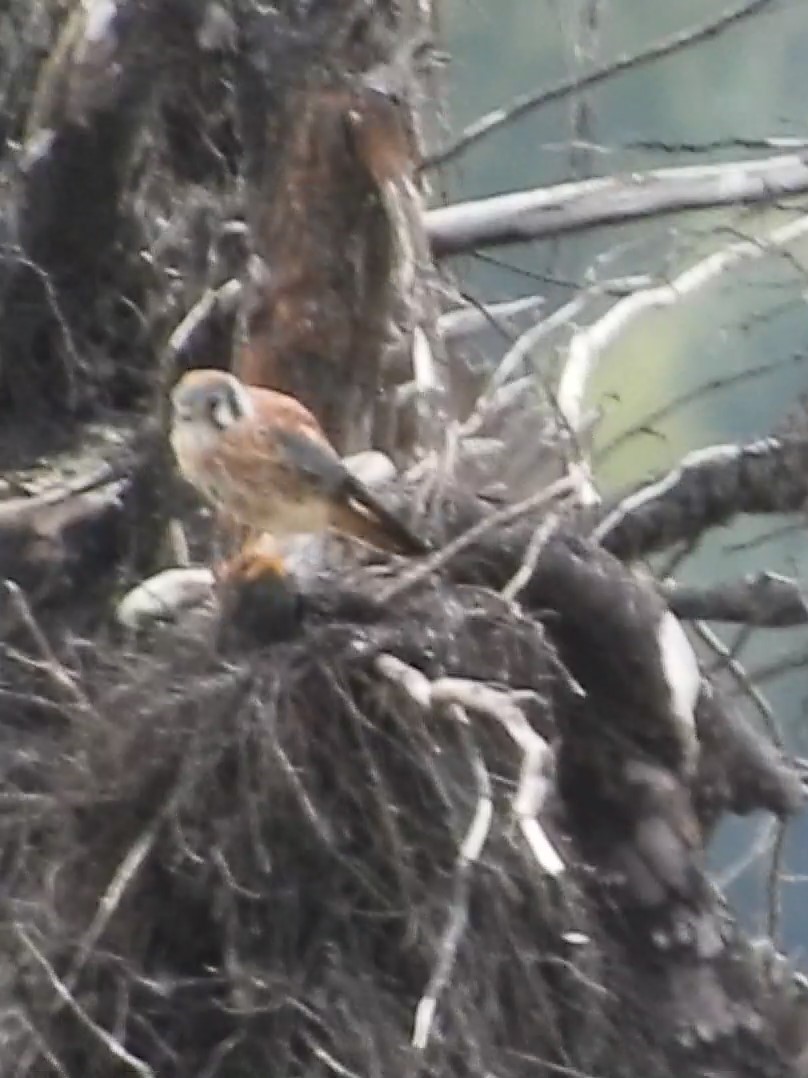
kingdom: Animalia
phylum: Chordata
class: Aves
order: Falconiformes
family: Falconidae
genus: Falco
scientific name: Falco sparverius
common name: American kestrel
